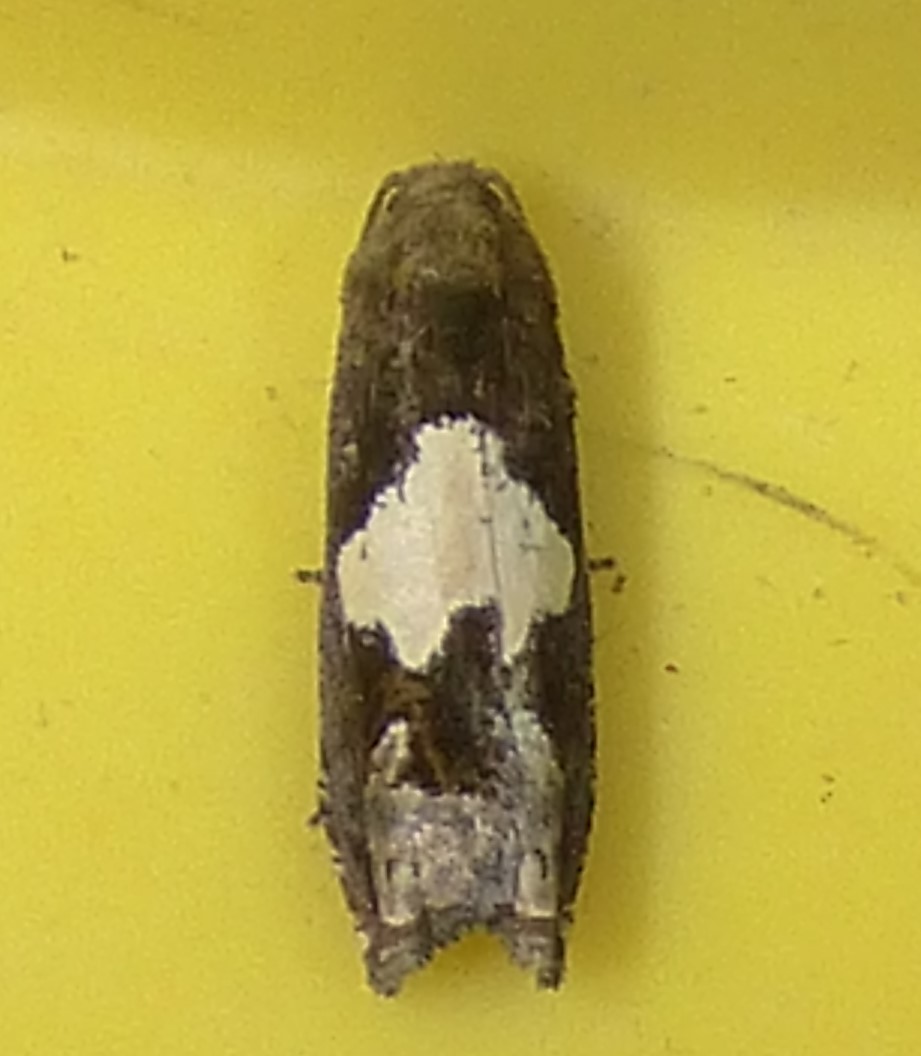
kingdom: Animalia
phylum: Arthropoda
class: Insecta
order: Lepidoptera
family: Tortricidae
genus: Epiblema
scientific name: Epiblema otiosana
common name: Bidens borer moth
